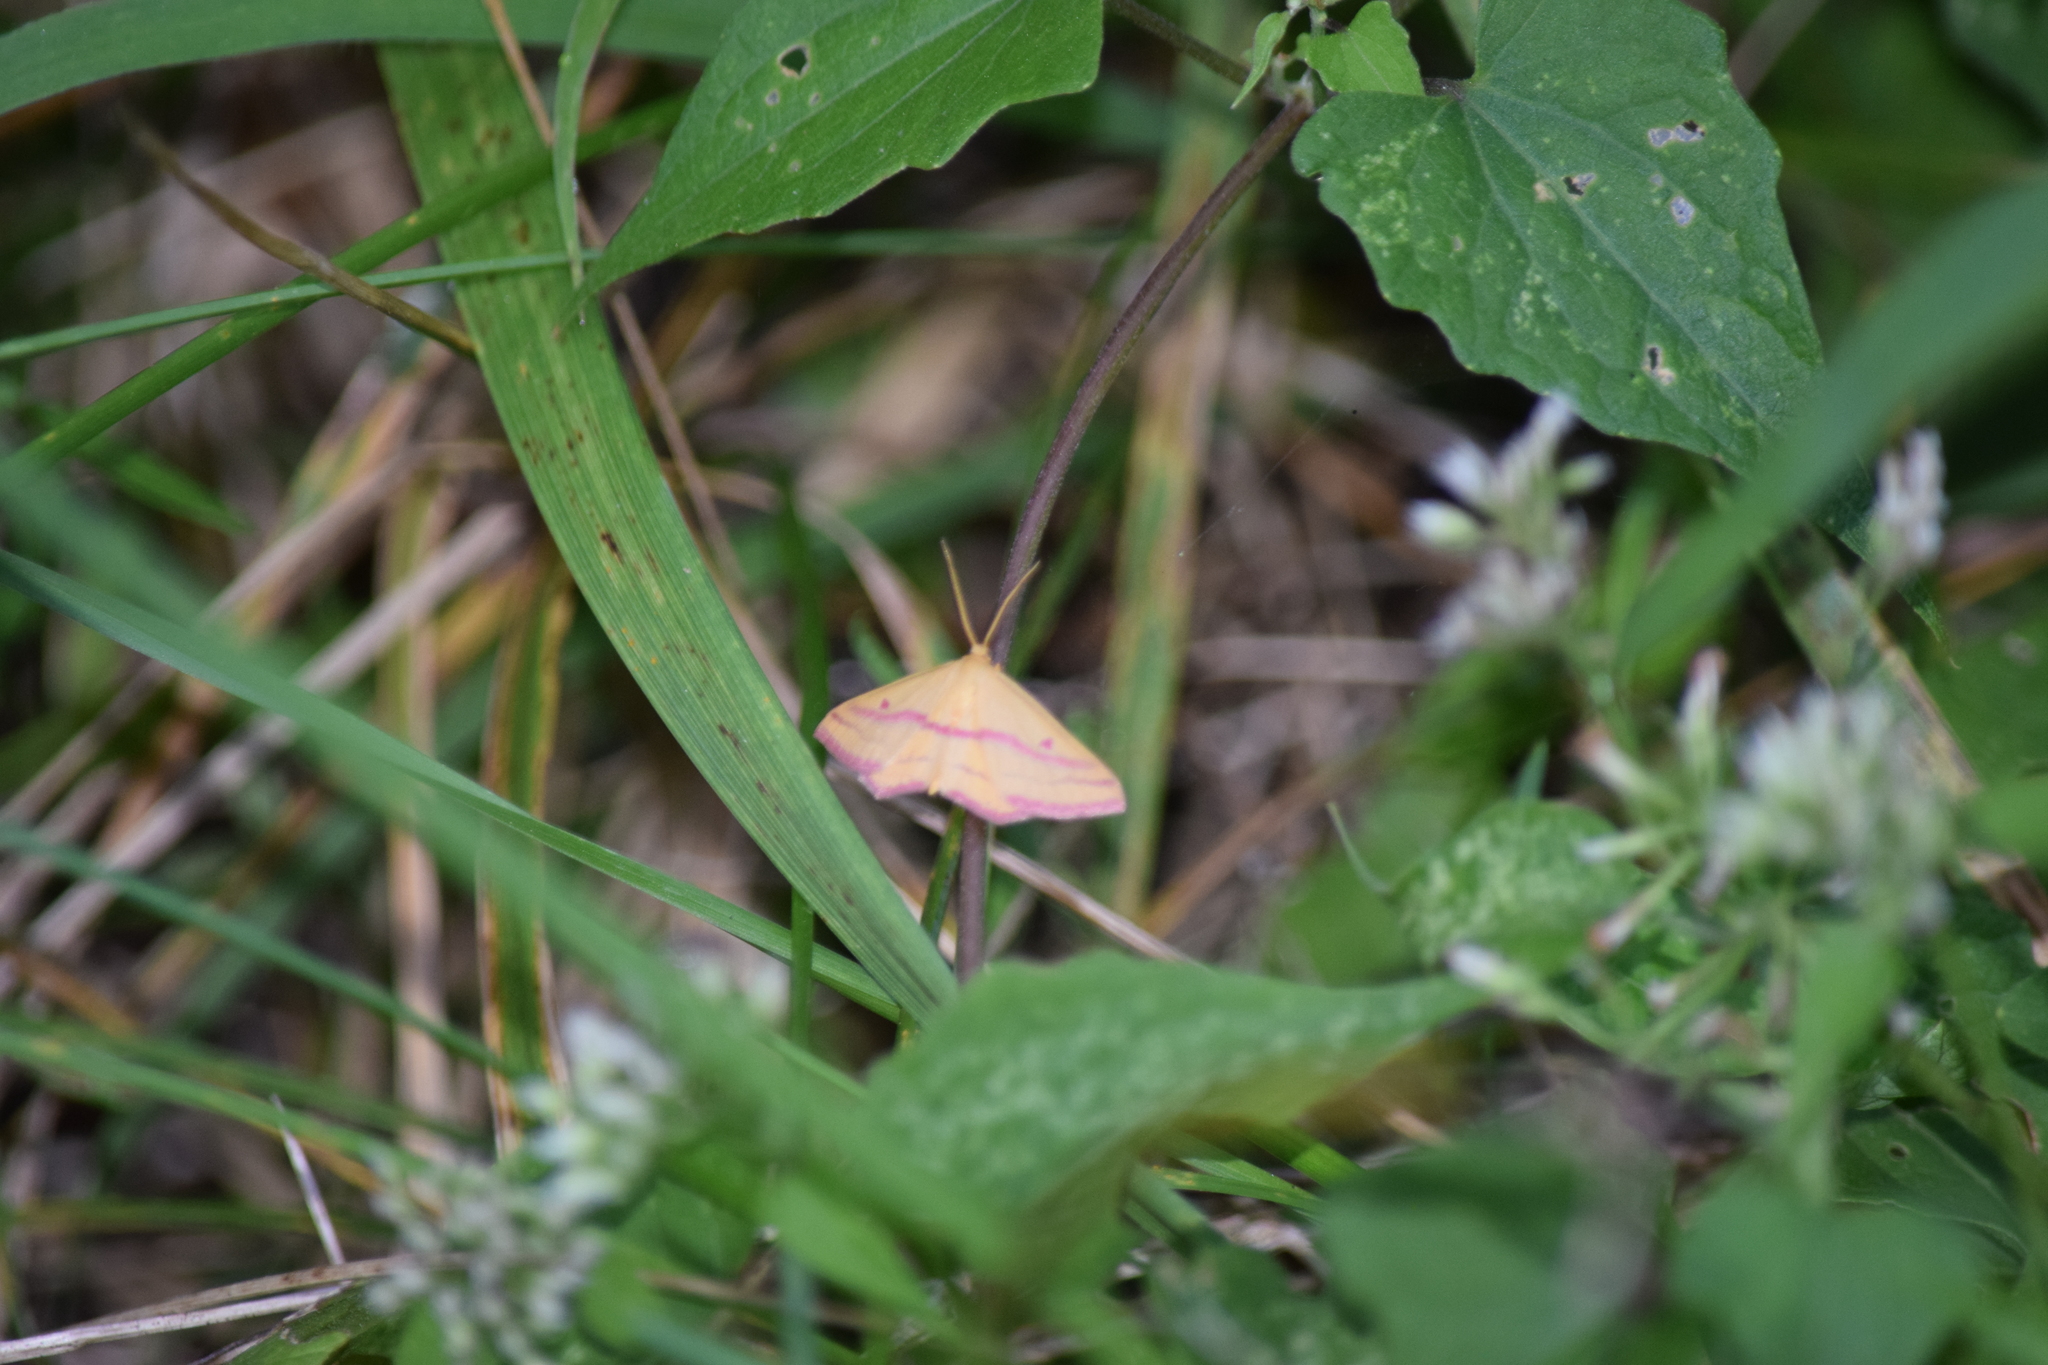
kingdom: Animalia
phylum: Arthropoda
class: Insecta
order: Lepidoptera
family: Geometridae
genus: Haematopis
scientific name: Haematopis grataria
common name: Chickweed geometer
